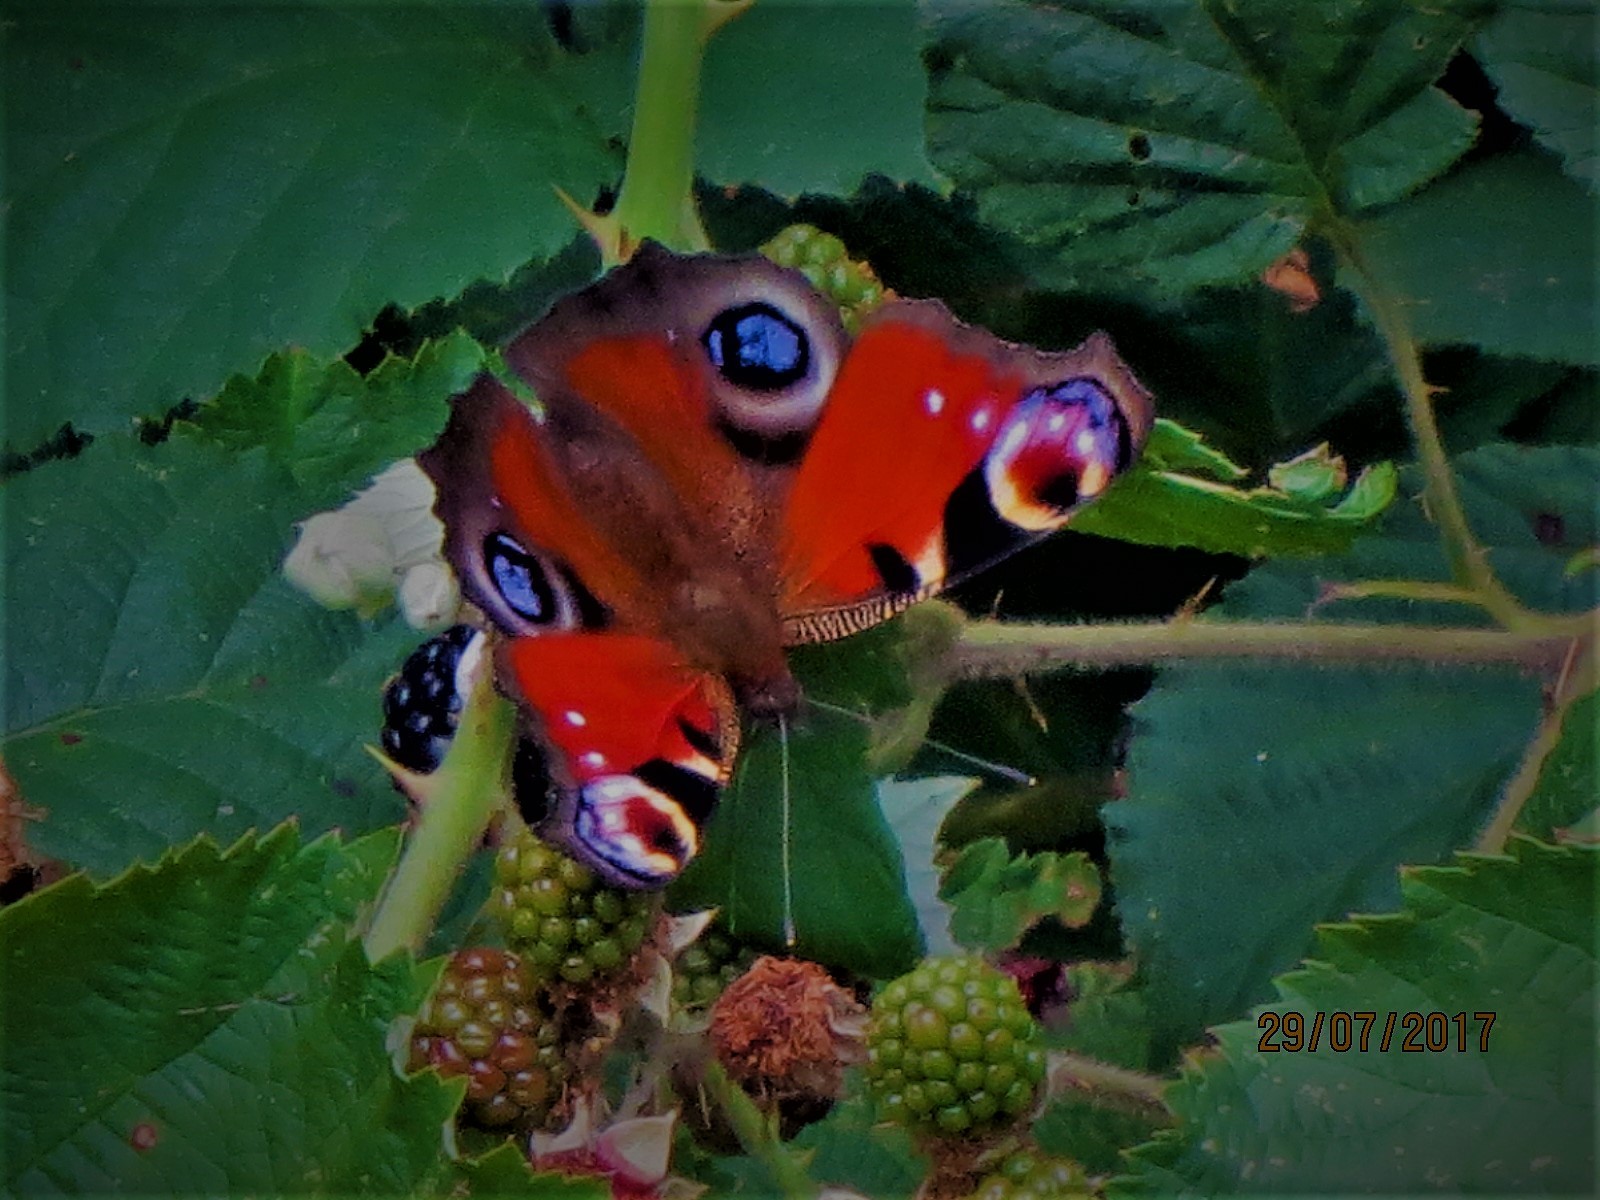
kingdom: Animalia
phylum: Arthropoda
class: Insecta
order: Lepidoptera
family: Nymphalidae
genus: Aglais
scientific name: Aglais io
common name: Peacock
